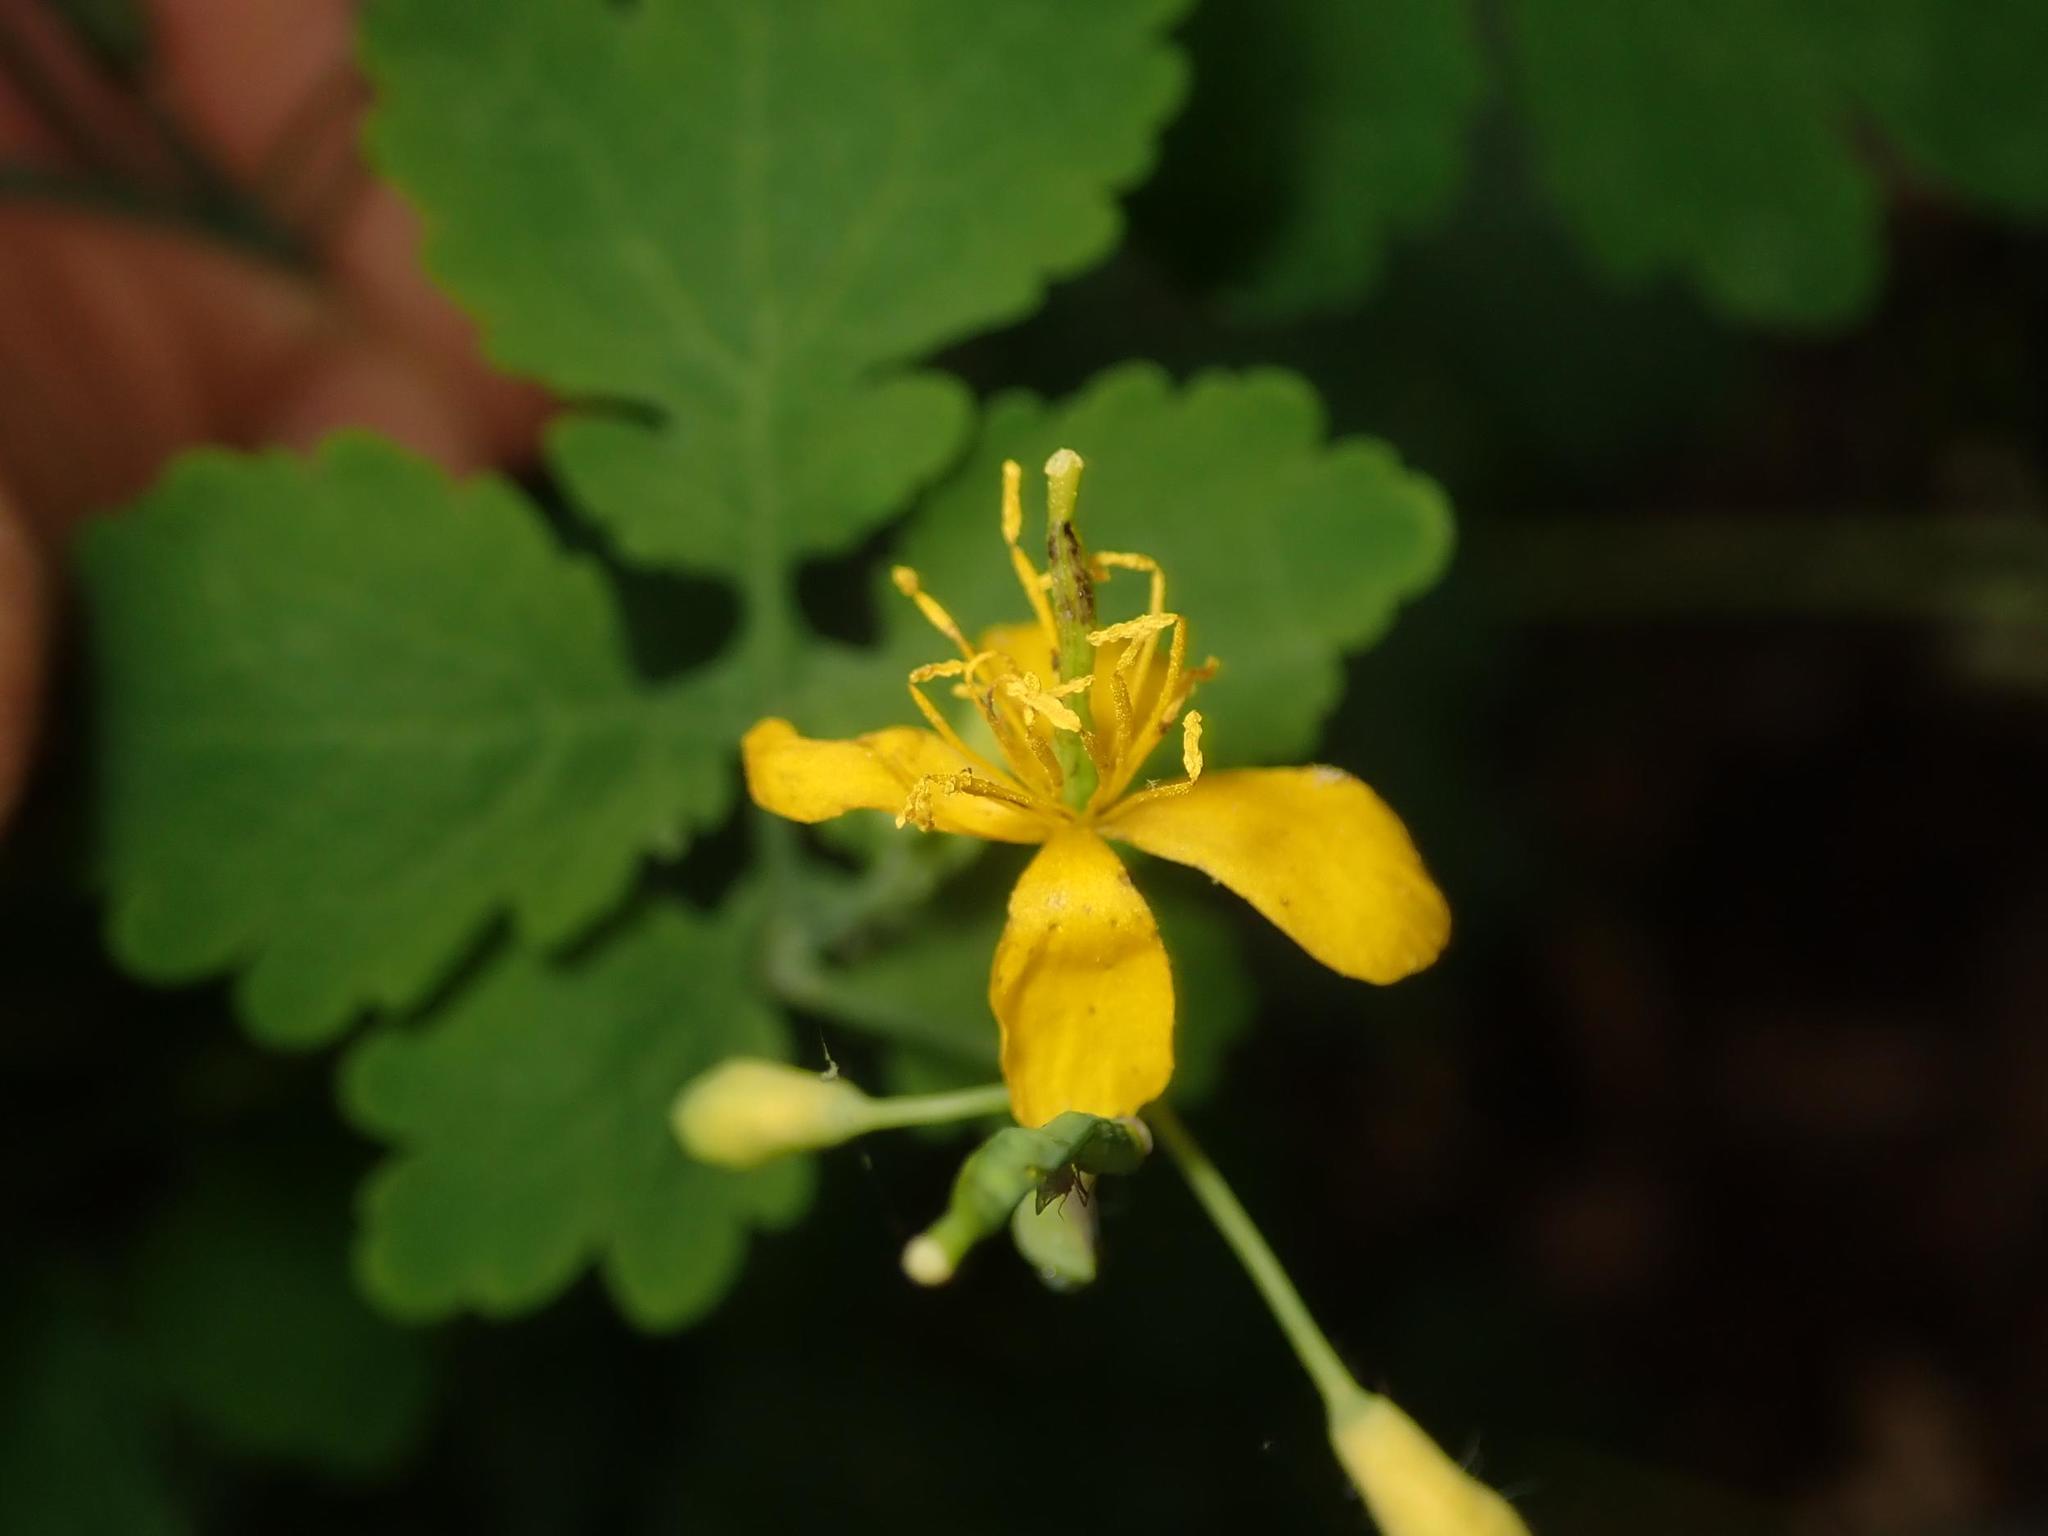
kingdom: Plantae
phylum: Tracheophyta
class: Magnoliopsida
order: Ranunculales
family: Papaveraceae
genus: Chelidonium
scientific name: Chelidonium majus
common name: Greater celandine
